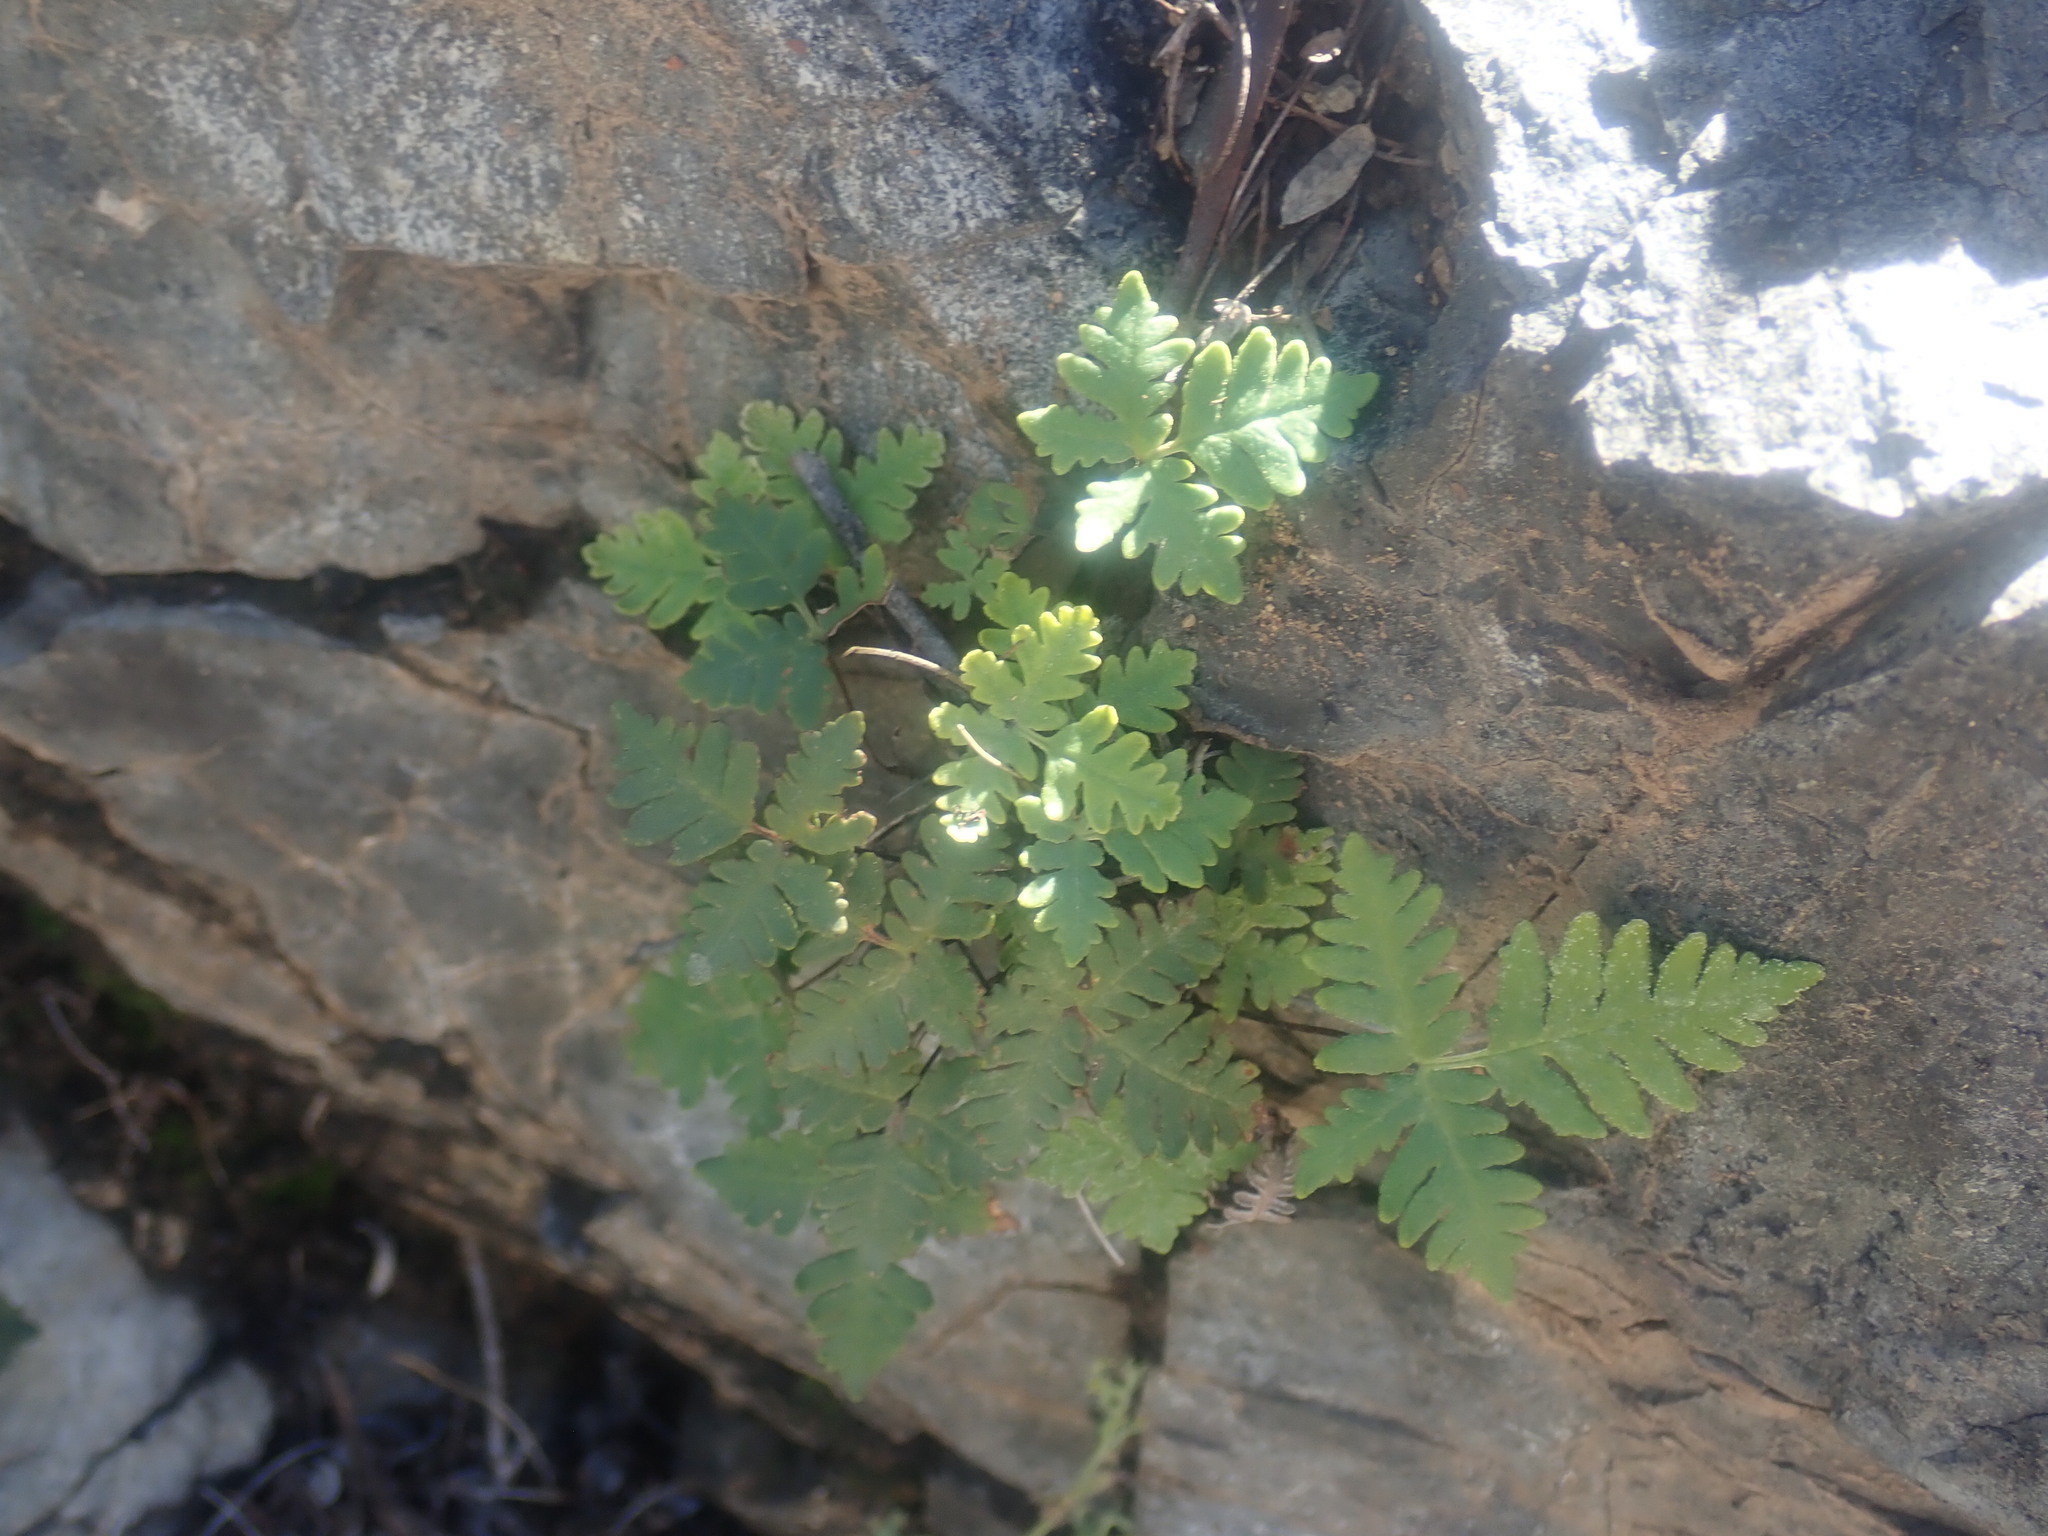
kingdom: Plantae
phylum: Tracheophyta
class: Polypodiopsida
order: Polypodiales
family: Pteridaceae
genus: Notholaena
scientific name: Notholaena standleyi
